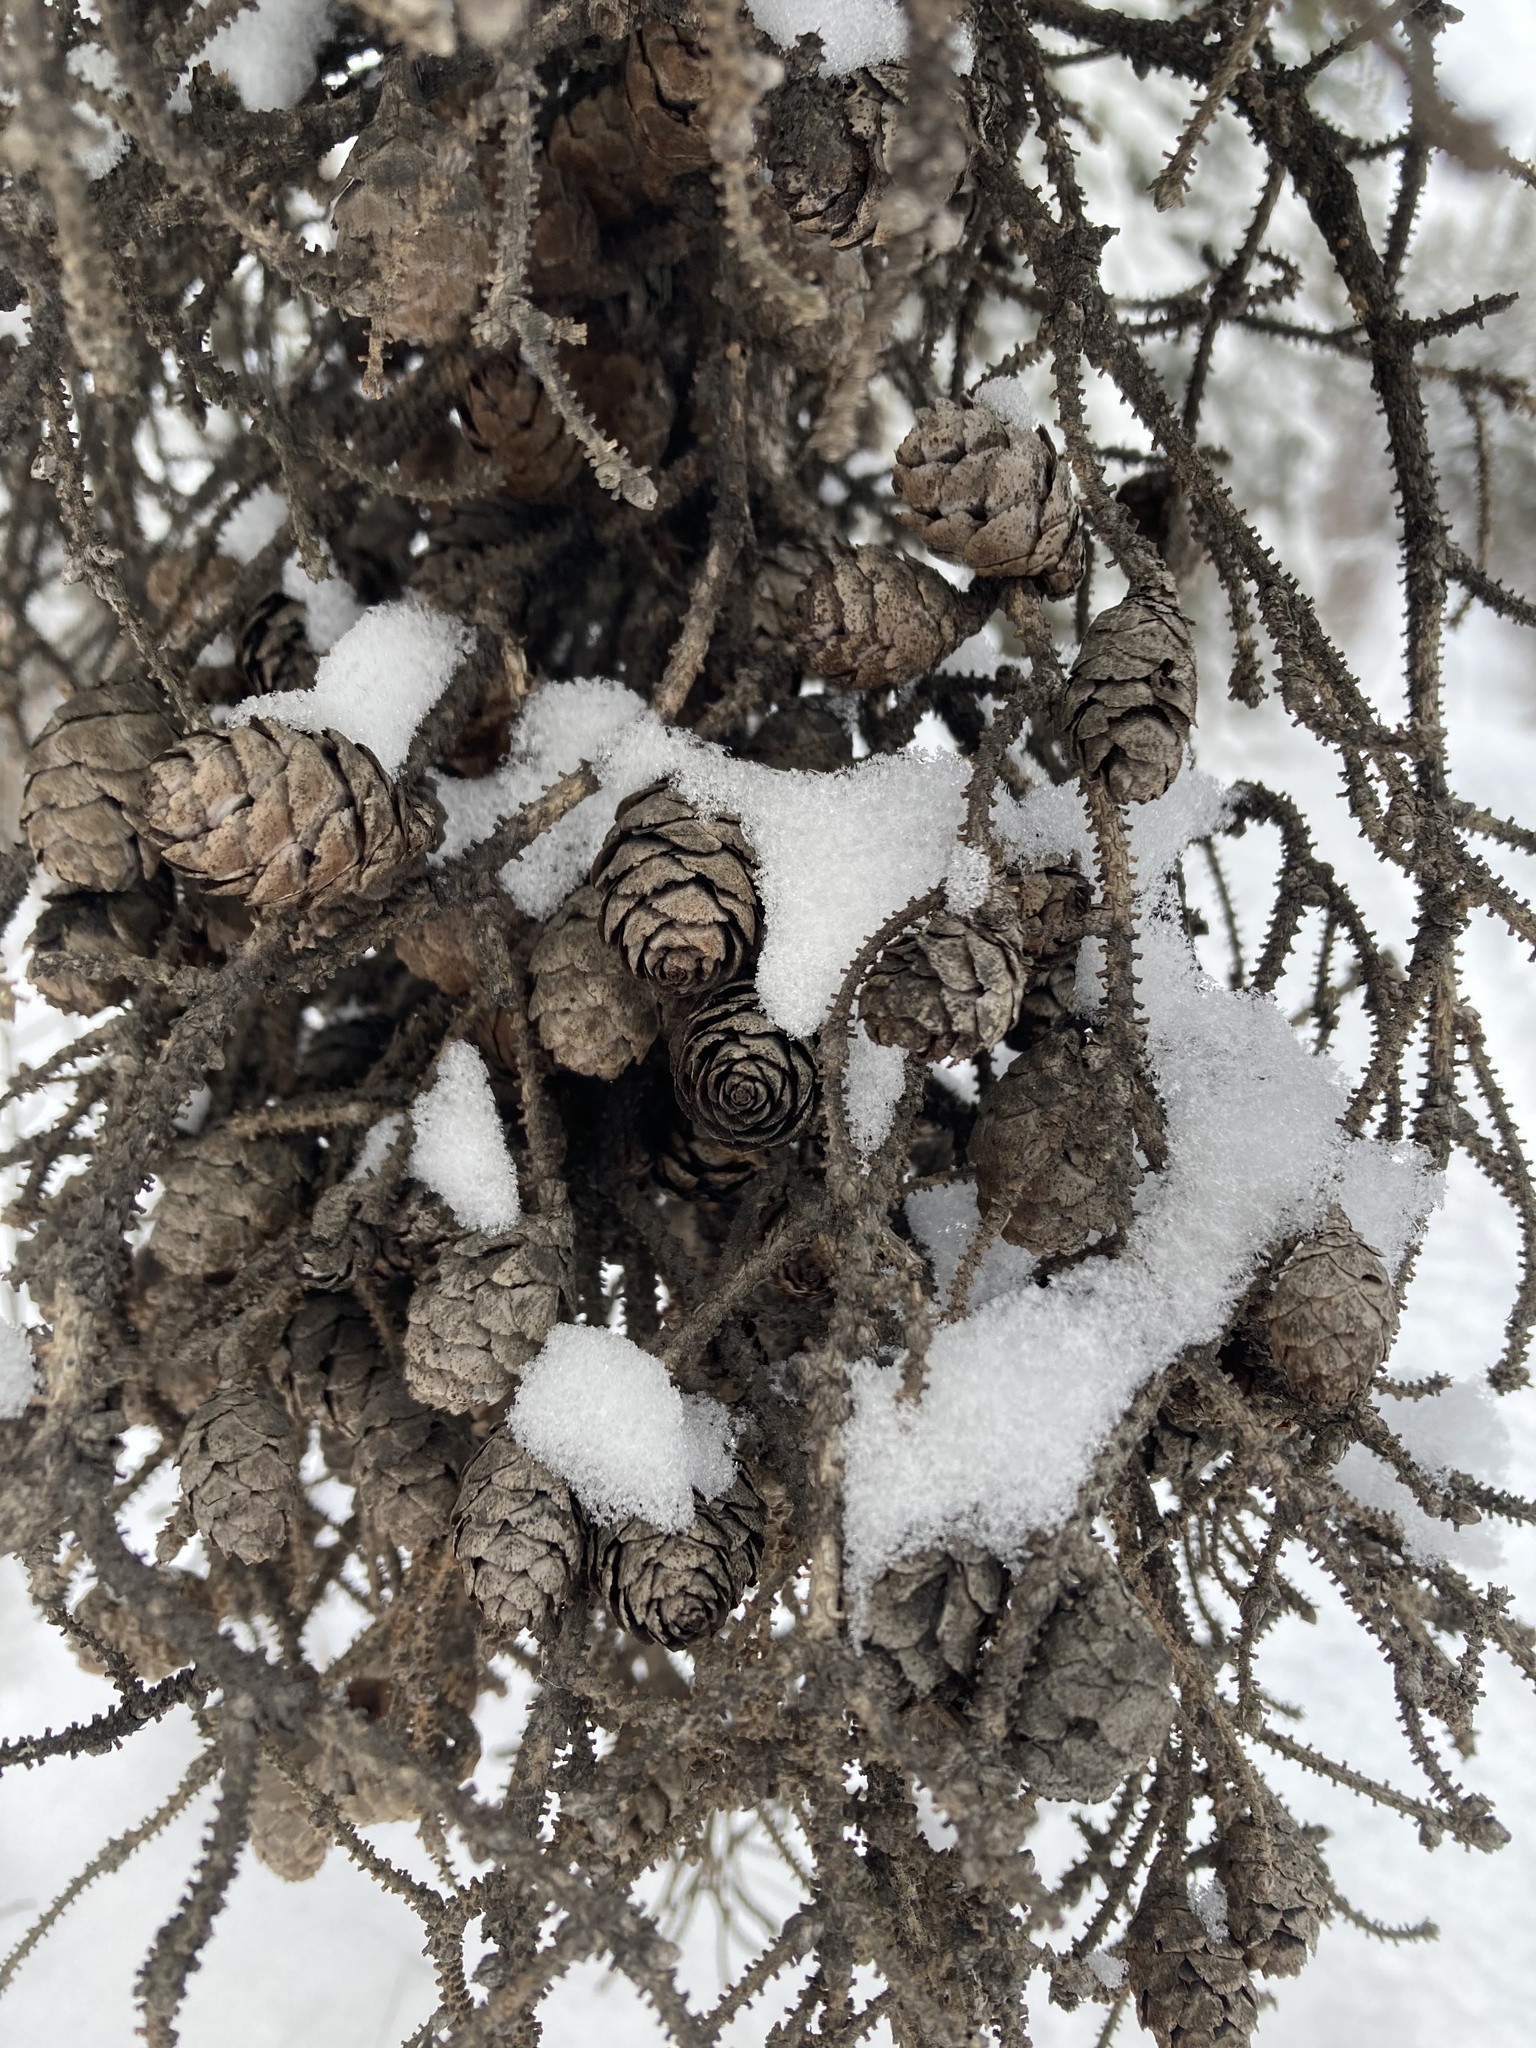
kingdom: Plantae
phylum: Tracheophyta
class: Pinopsida
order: Pinales
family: Pinaceae
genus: Picea
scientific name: Picea mariana
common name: Black spruce
